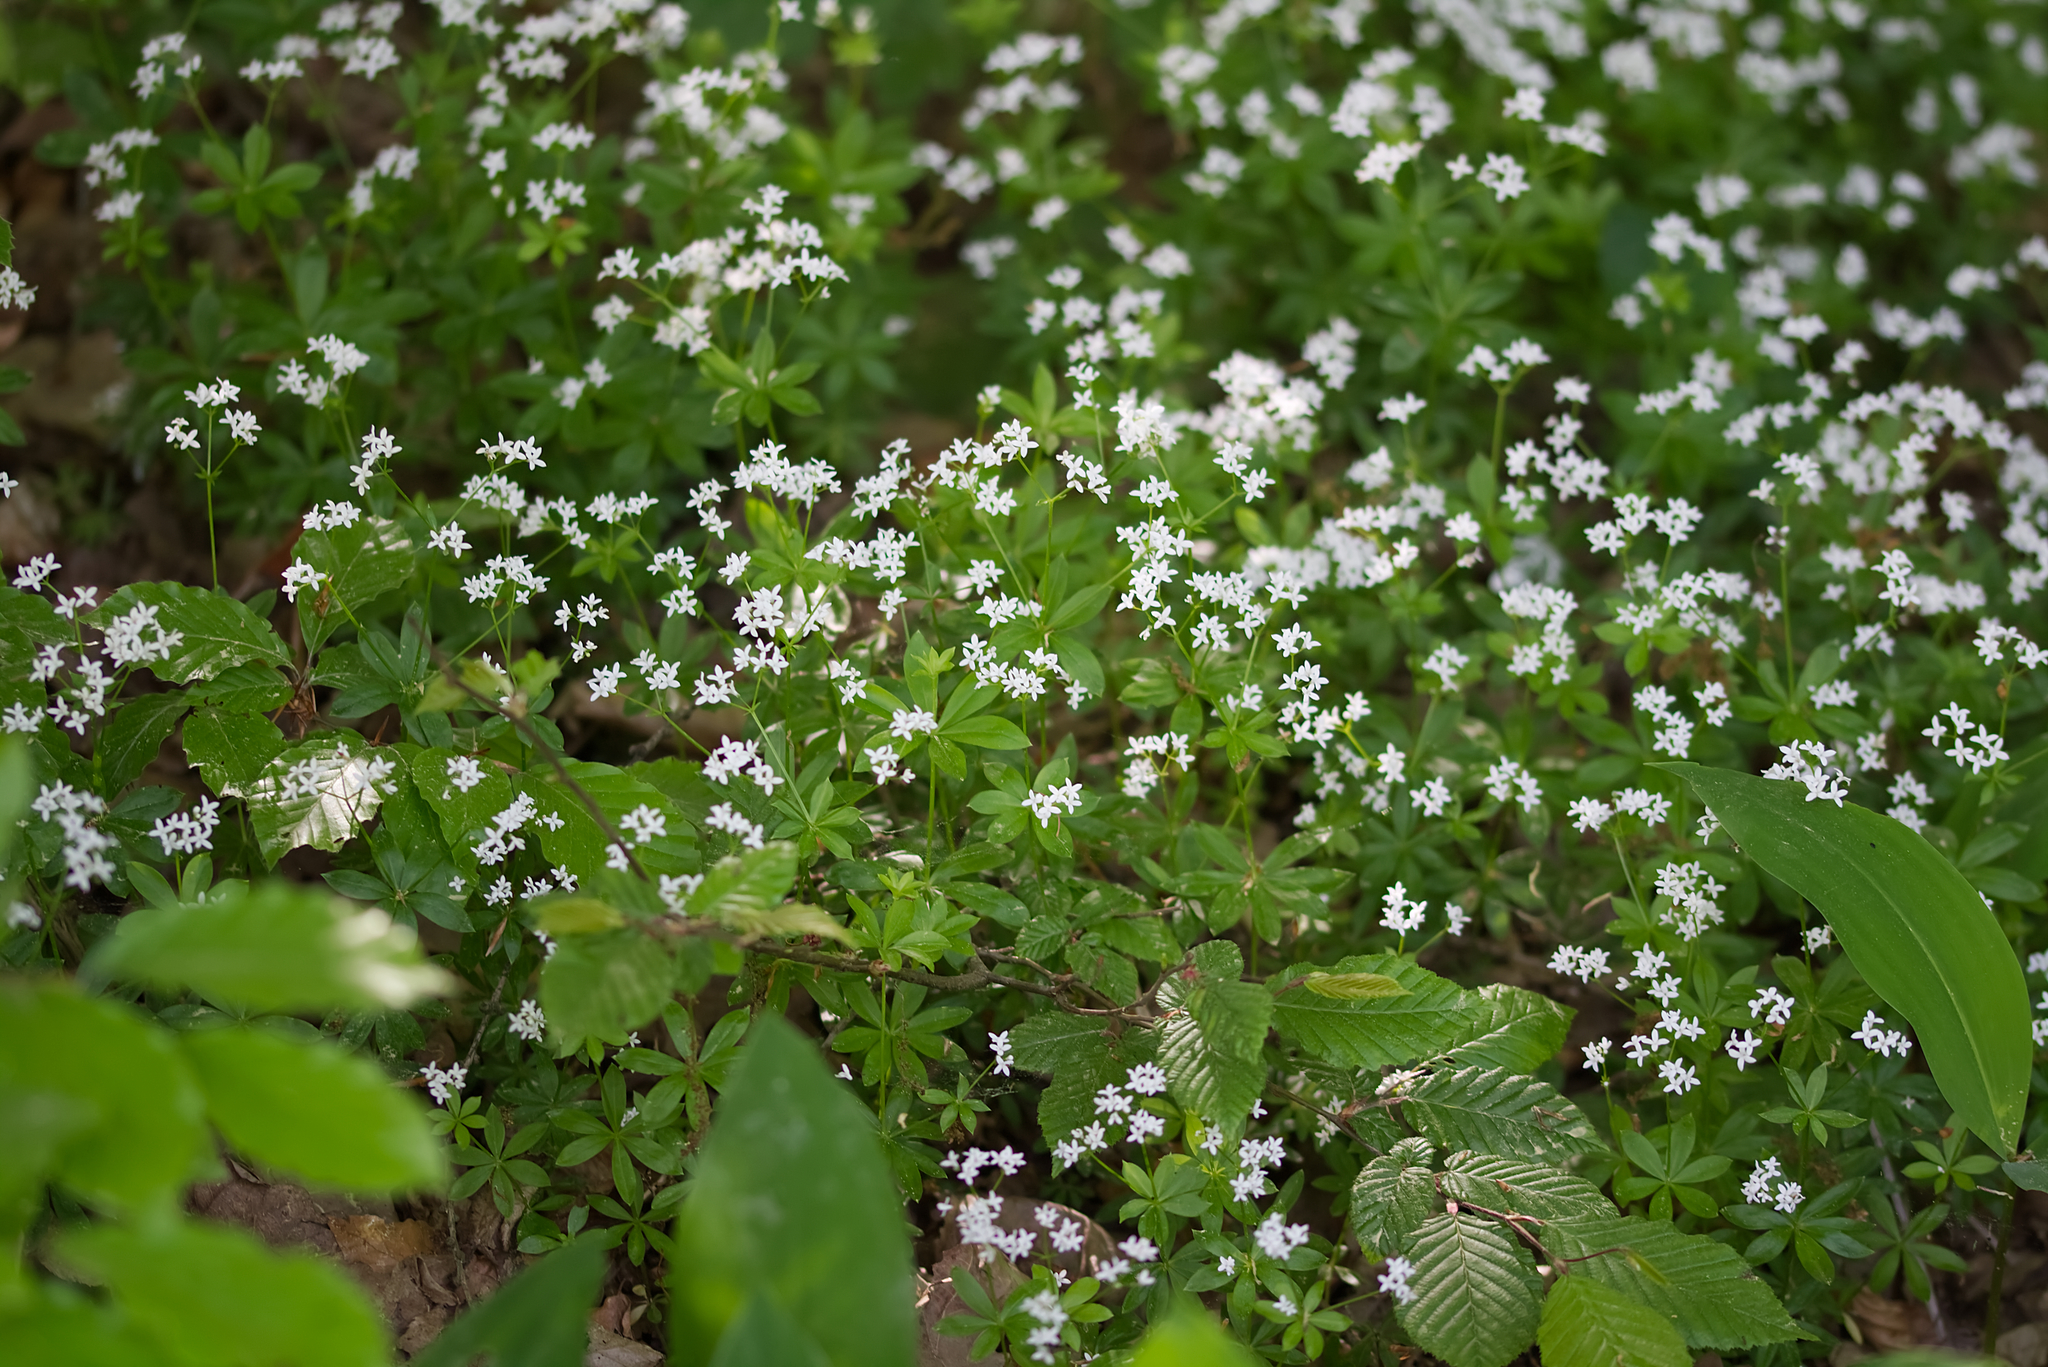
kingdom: Plantae
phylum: Tracheophyta
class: Magnoliopsida
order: Gentianales
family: Rubiaceae
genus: Galium
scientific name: Galium odoratum
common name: Sweet woodruff
